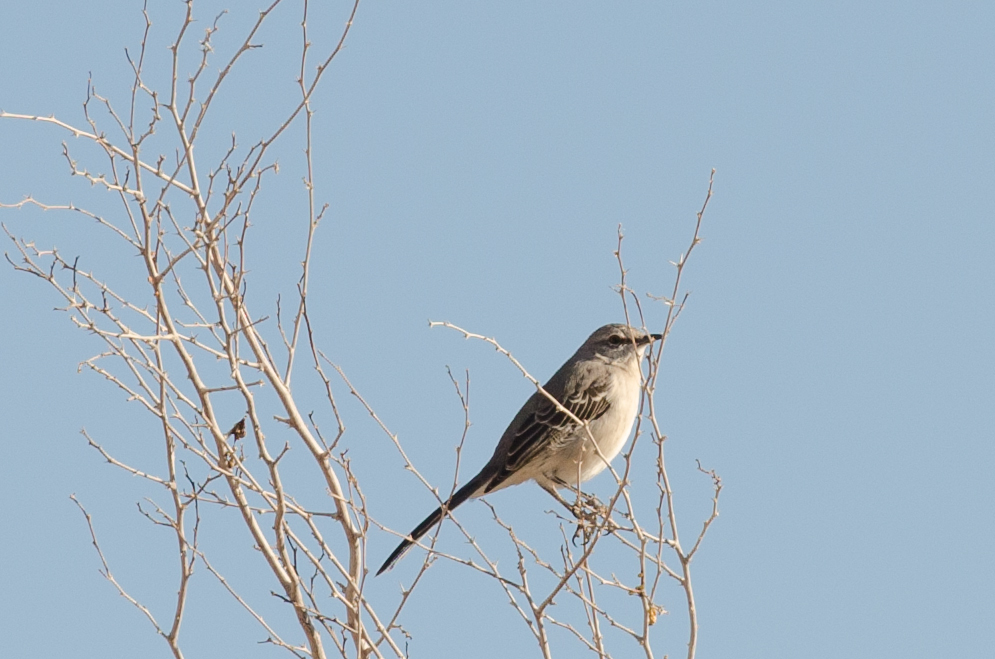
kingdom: Animalia
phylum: Chordata
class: Aves
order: Passeriformes
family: Mimidae
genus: Mimus
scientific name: Mimus polyglottos
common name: Northern mockingbird
